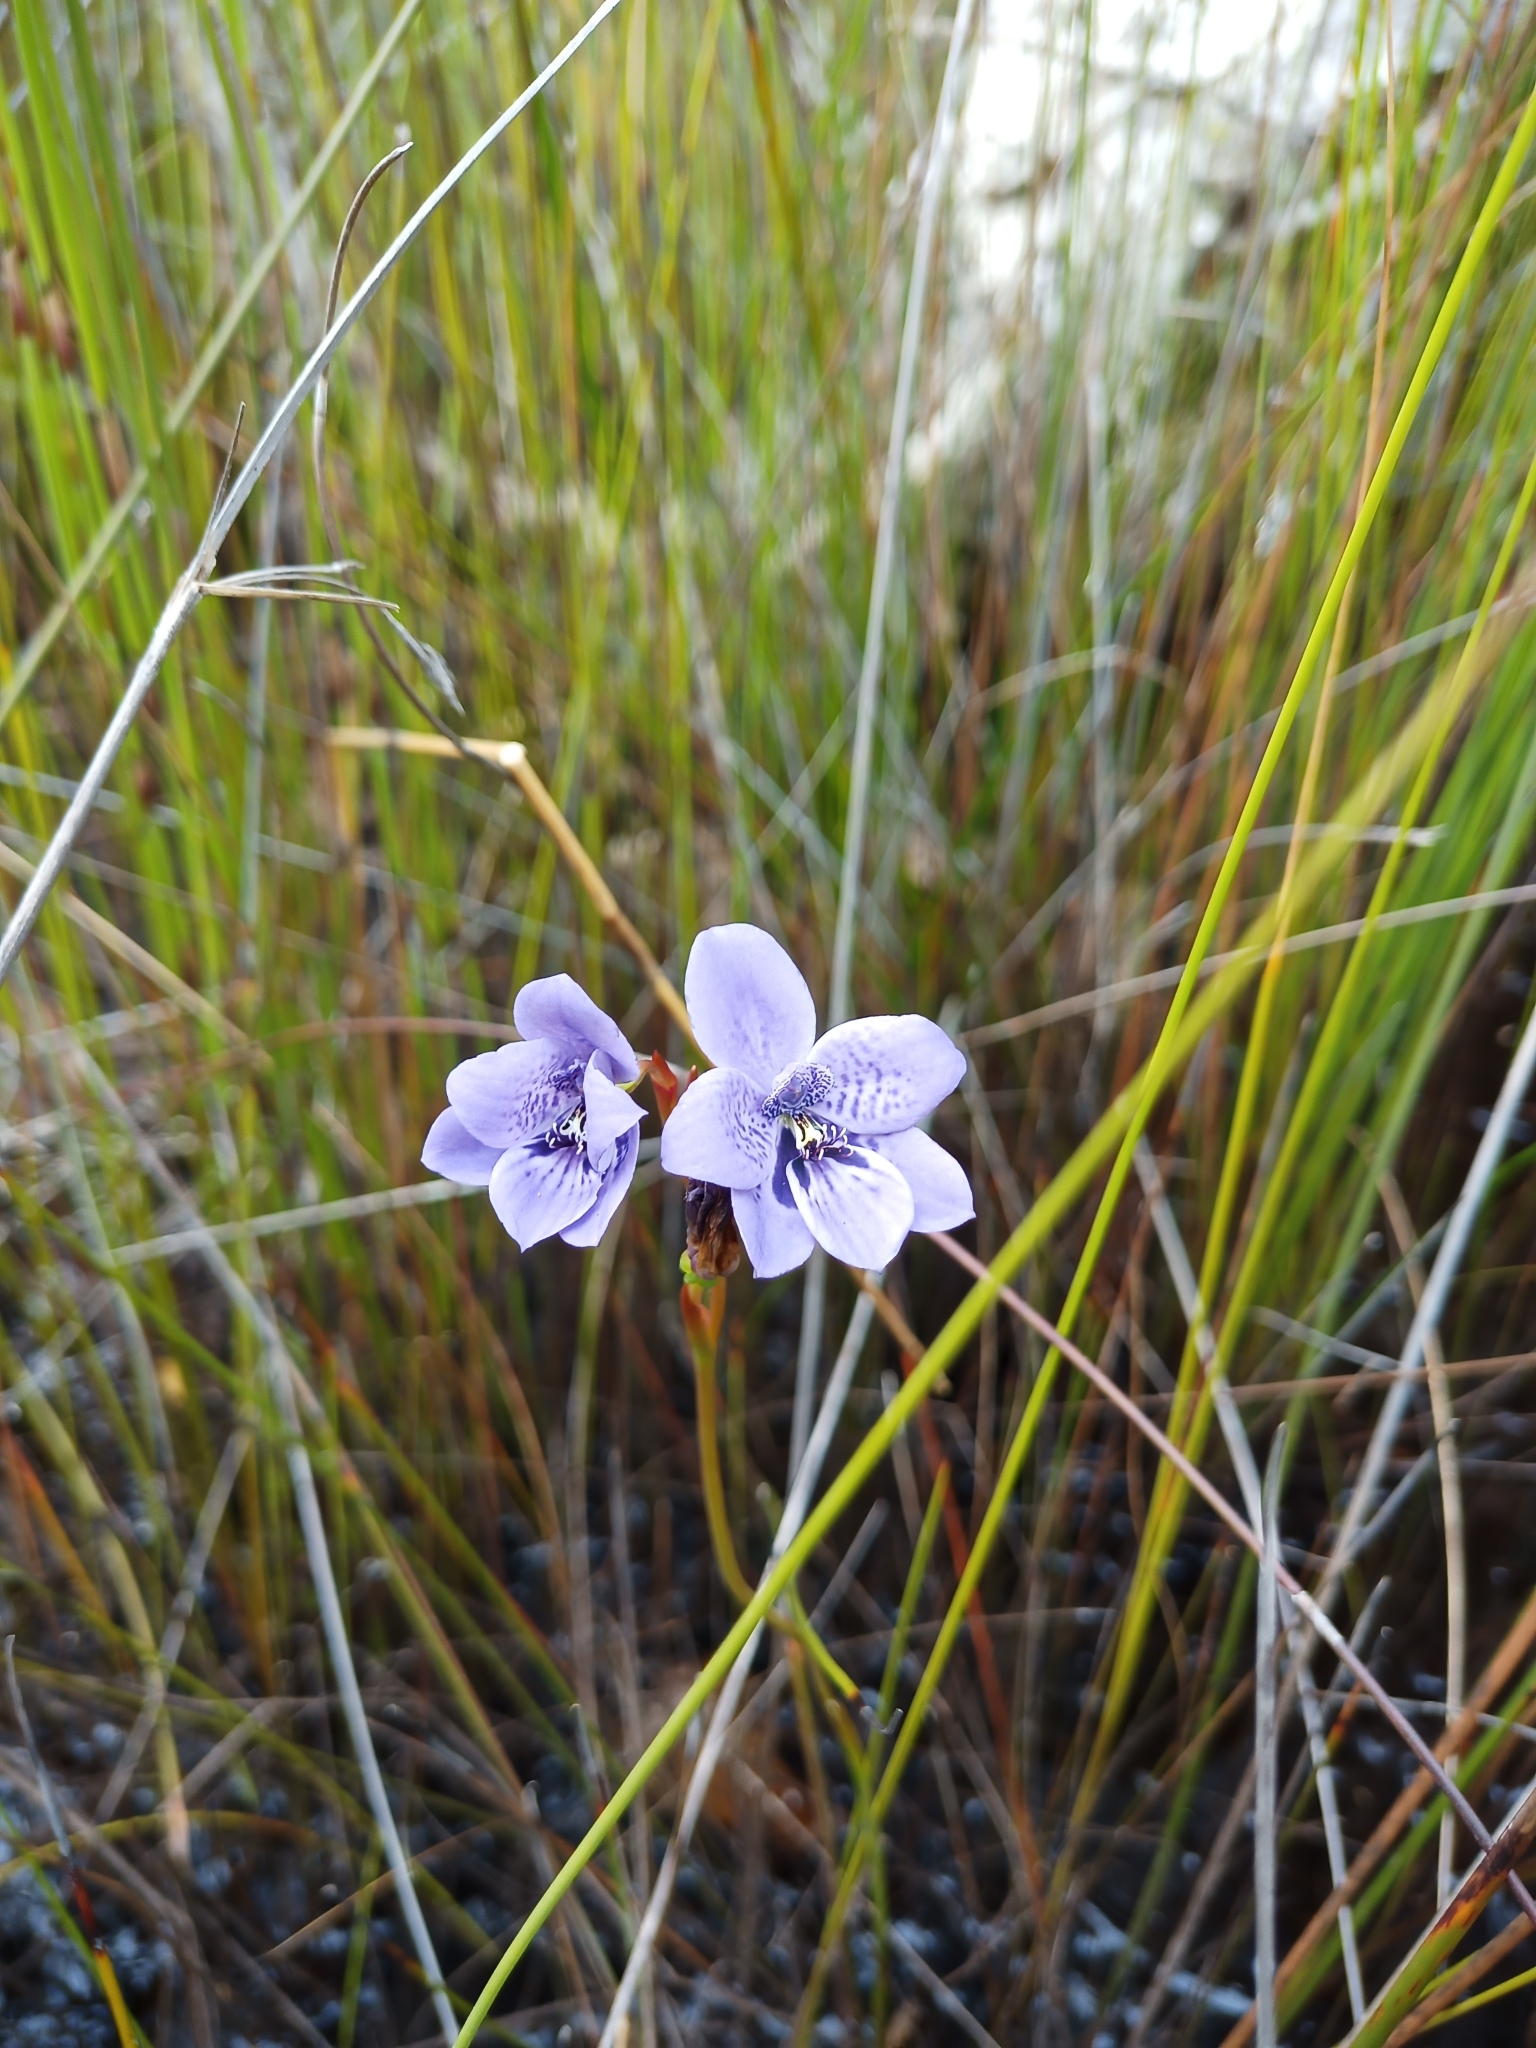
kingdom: Plantae
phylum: Tracheophyta
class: Liliopsida
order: Asparagales
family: Orchidaceae
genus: Epiblema
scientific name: Epiblema grandiflorum
